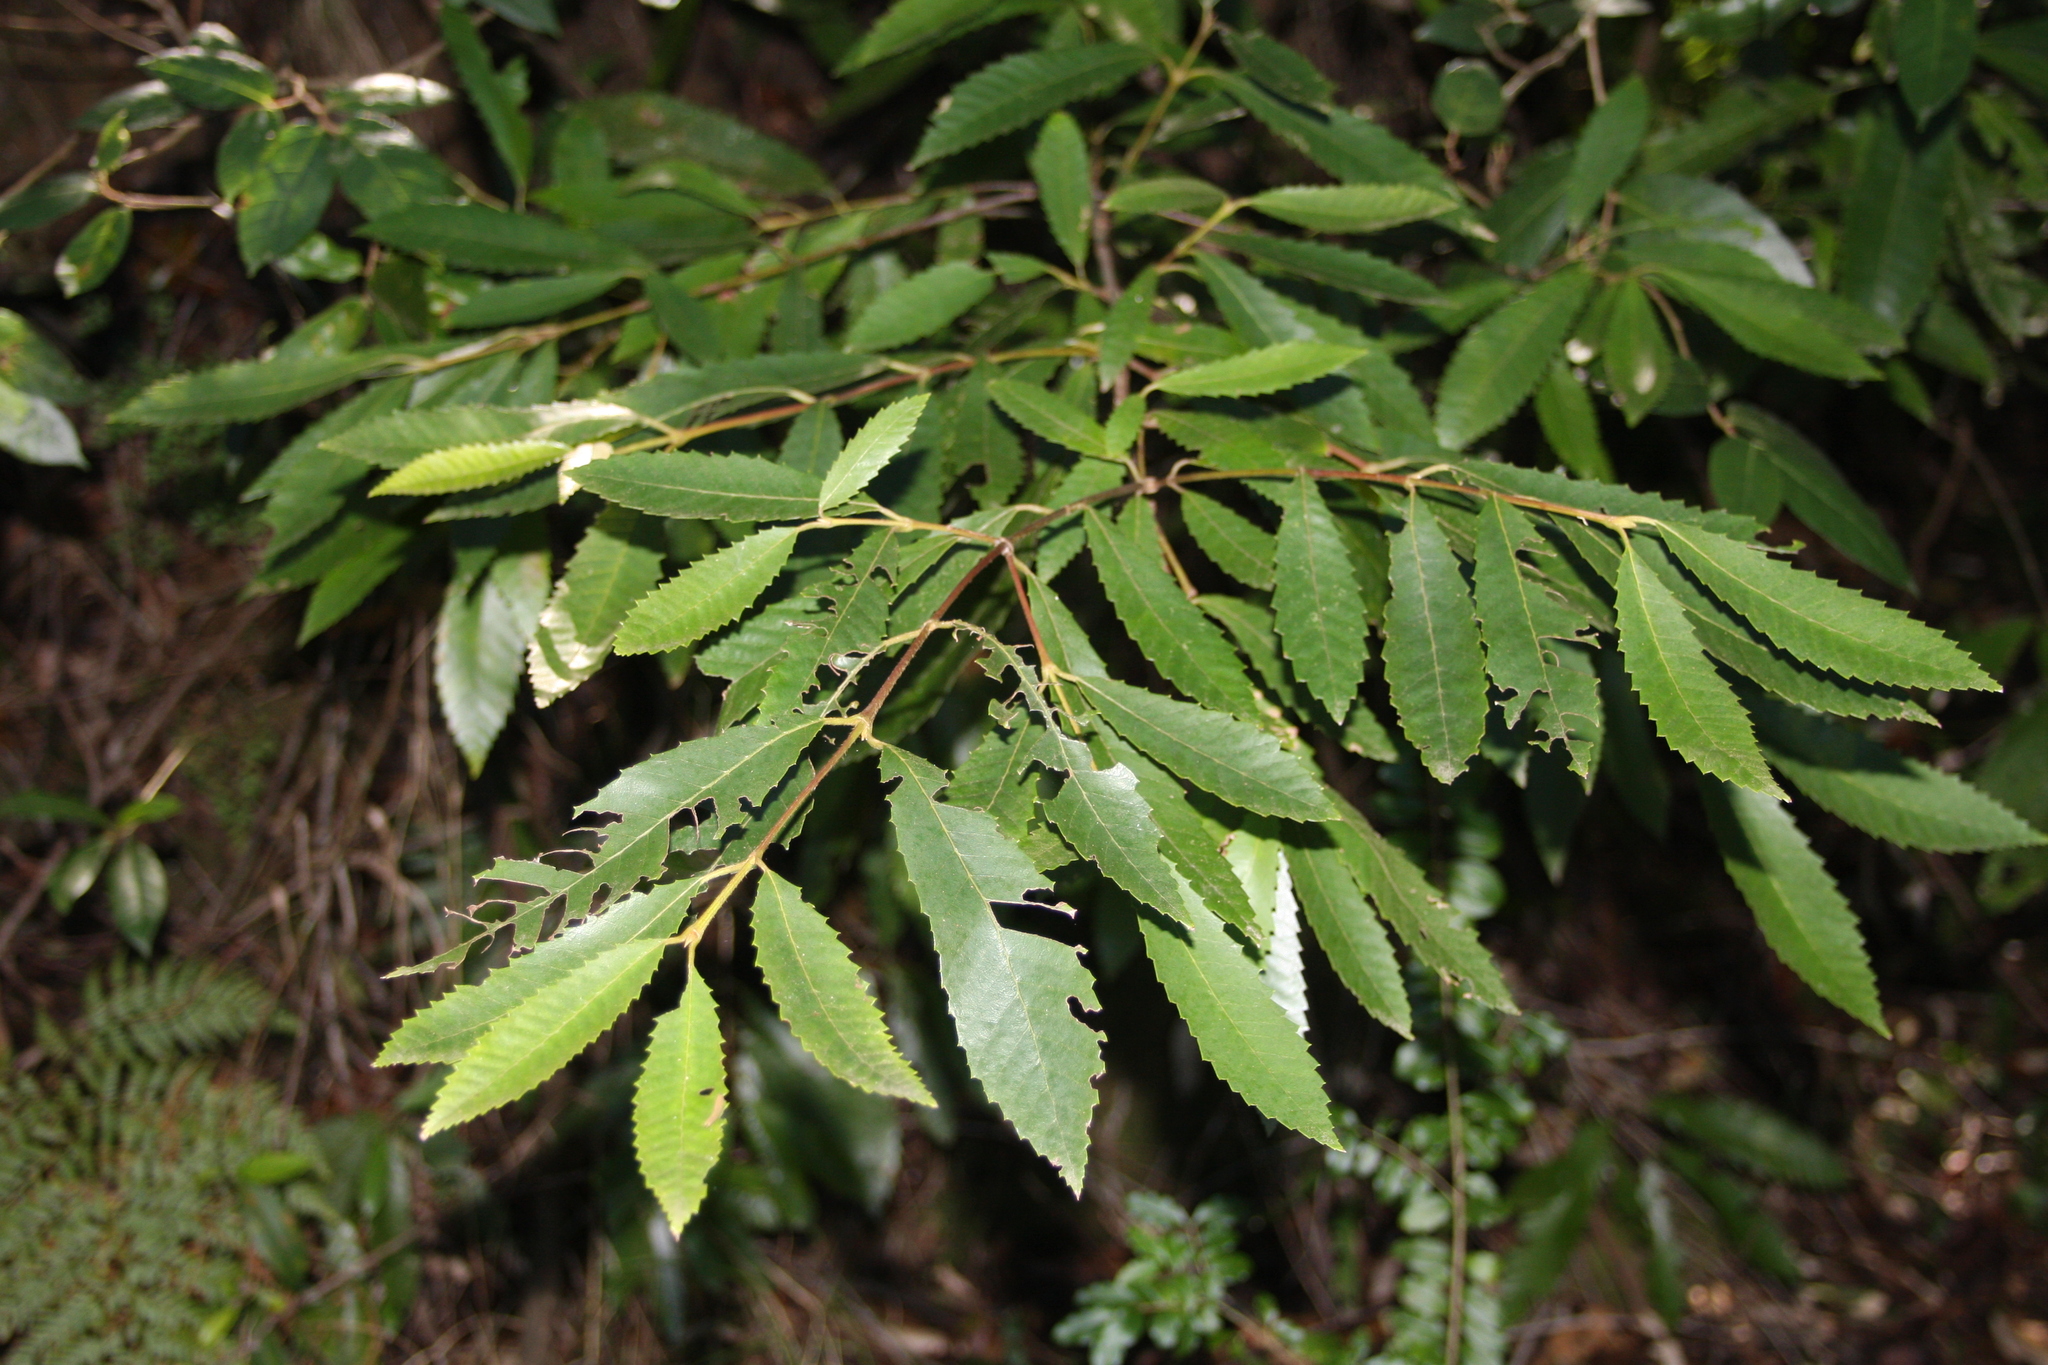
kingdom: Plantae
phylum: Tracheophyta
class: Magnoliopsida
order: Oxalidales
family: Cunoniaceae
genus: Callicoma
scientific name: Callicoma serratifolia
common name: Black wattle
